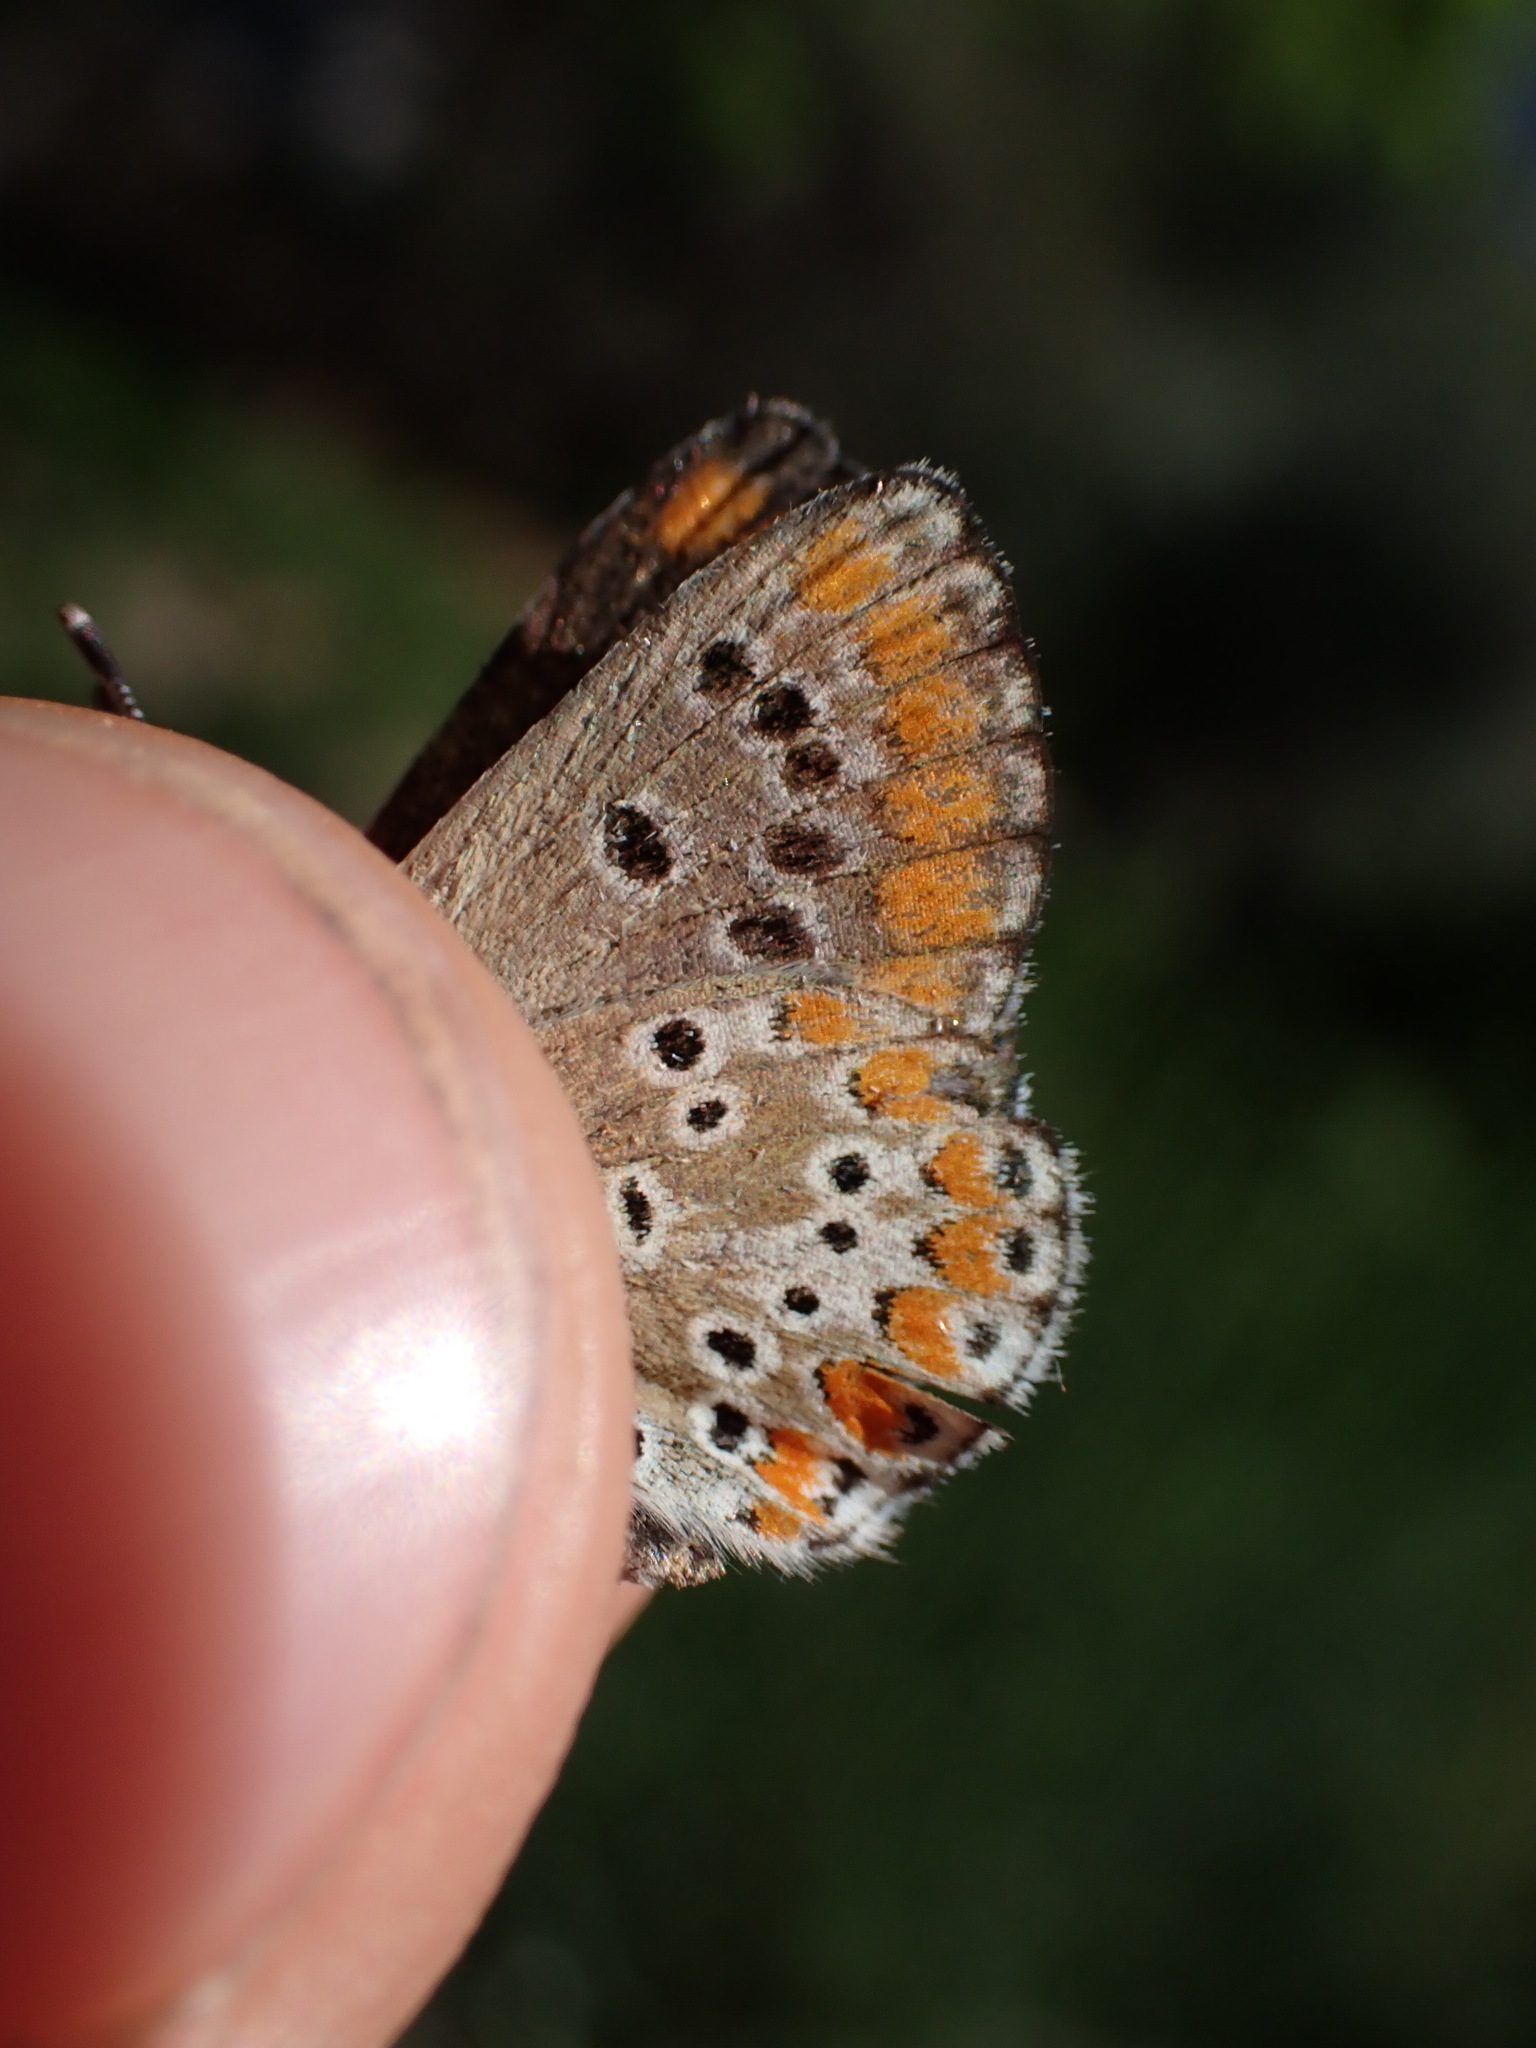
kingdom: Animalia
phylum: Arthropoda
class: Insecta
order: Lepidoptera
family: Lycaenidae
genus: Aricia
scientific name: Aricia agestis
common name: Brown argus
